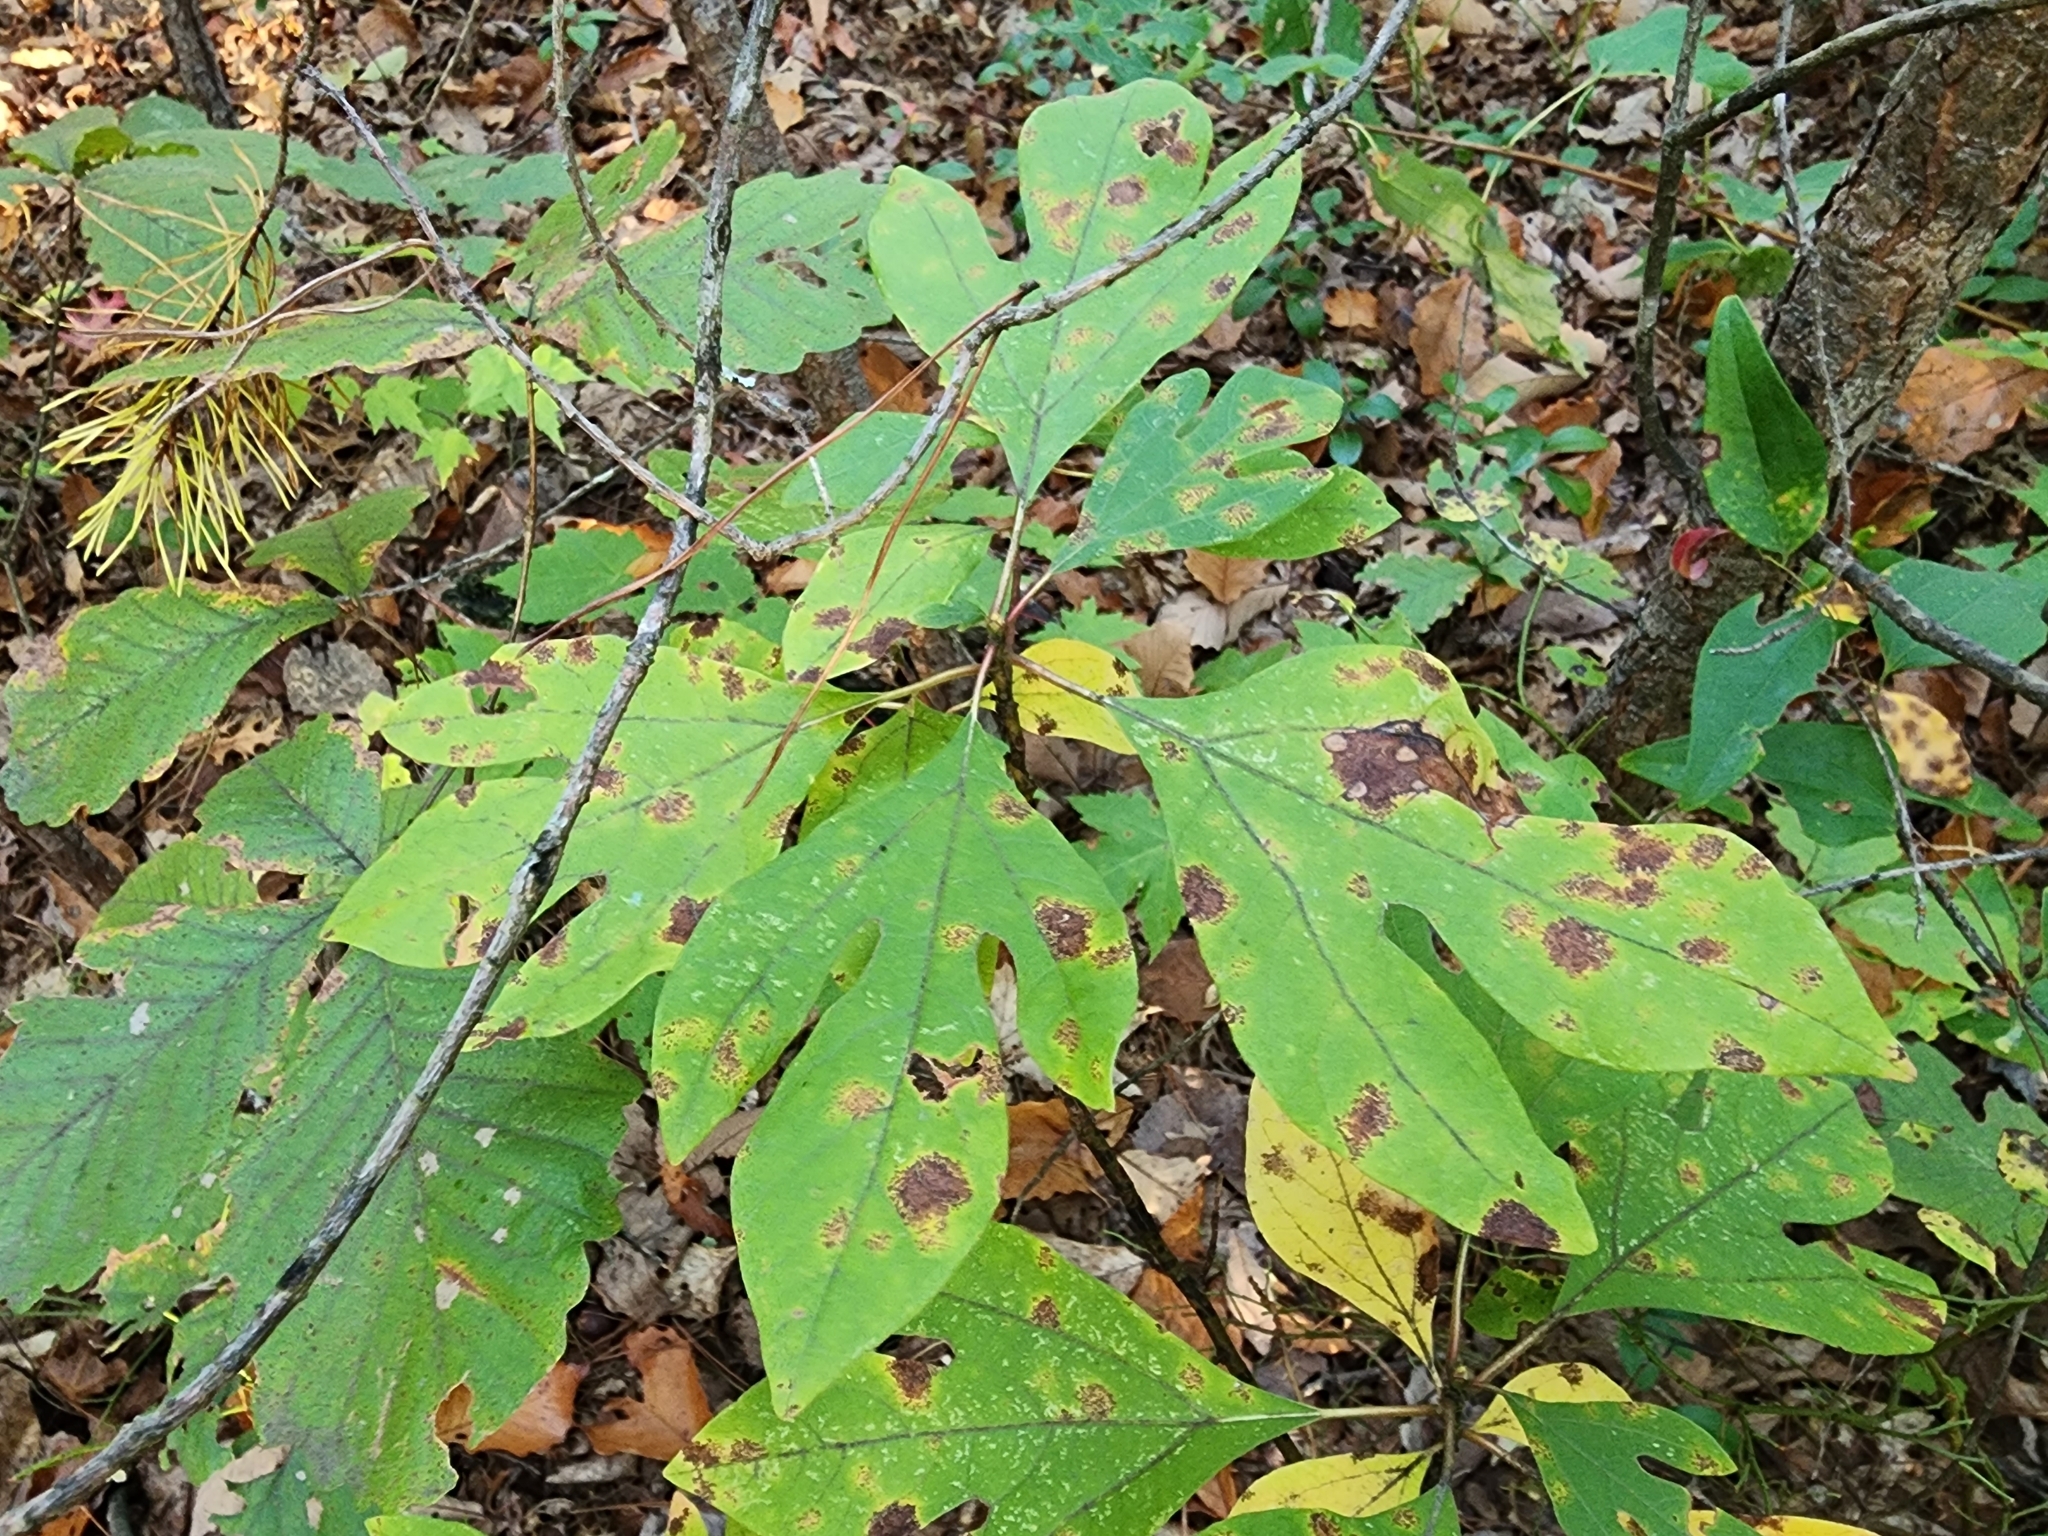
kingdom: Plantae
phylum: Tracheophyta
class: Magnoliopsida
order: Laurales
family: Lauraceae
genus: Sassafras
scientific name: Sassafras albidum
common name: Sassafras
